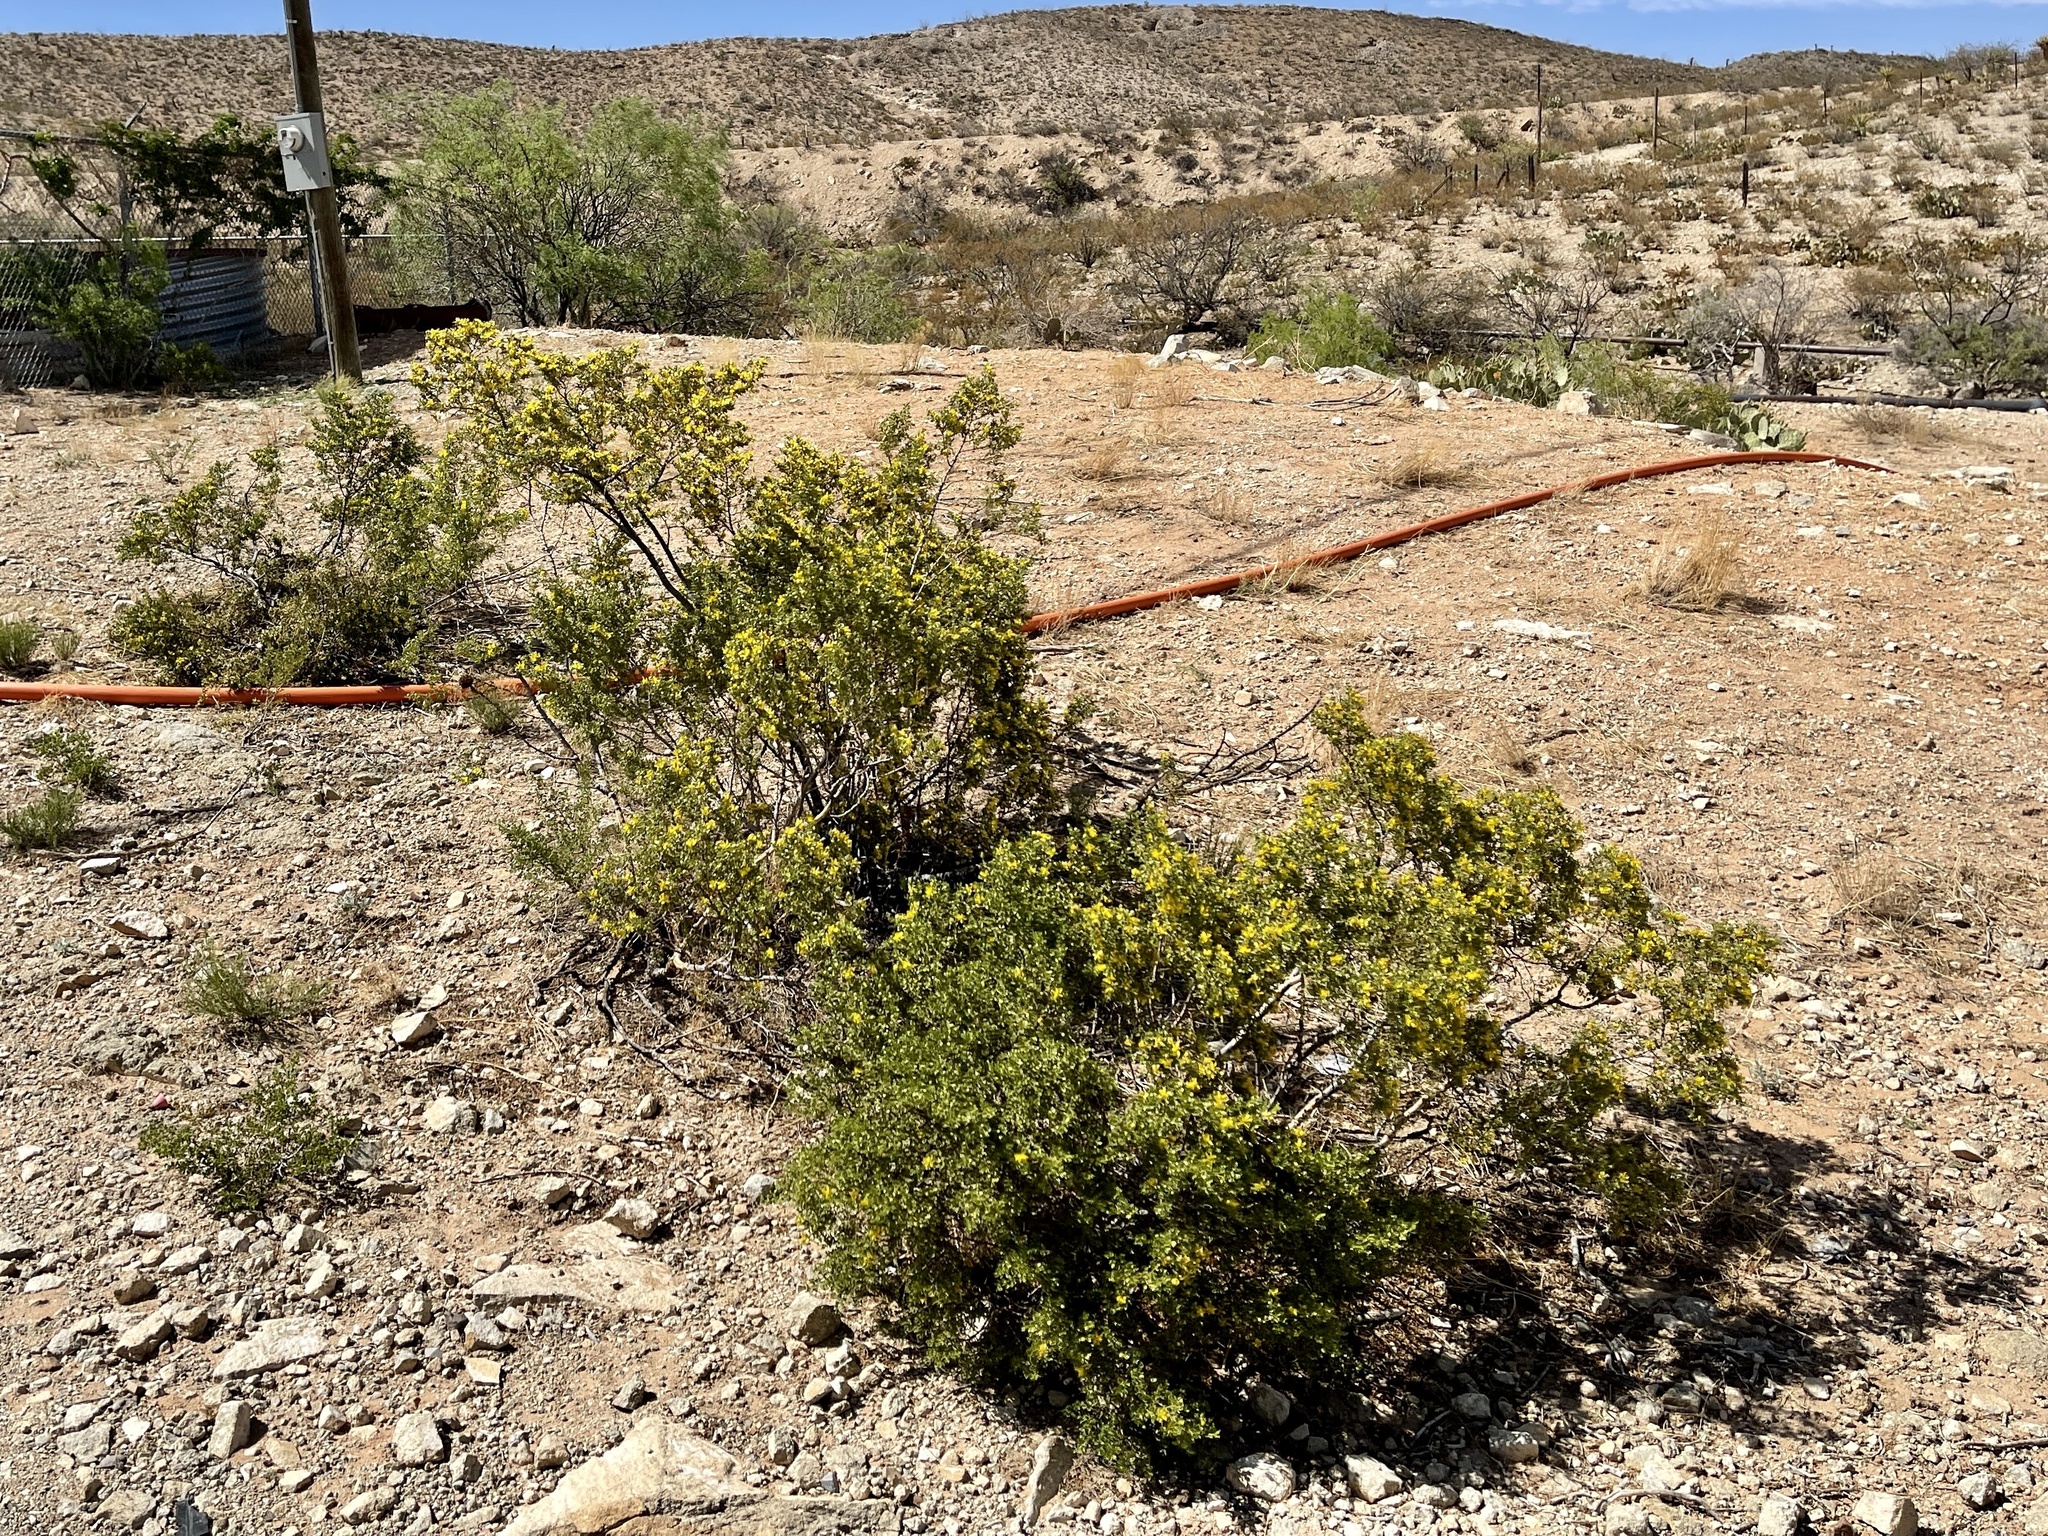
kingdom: Plantae
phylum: Tracheophyta
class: Magnoliopsida
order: Zygophyllales
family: Zygophyllaceae
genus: Larrea
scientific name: Larrea tridentata
